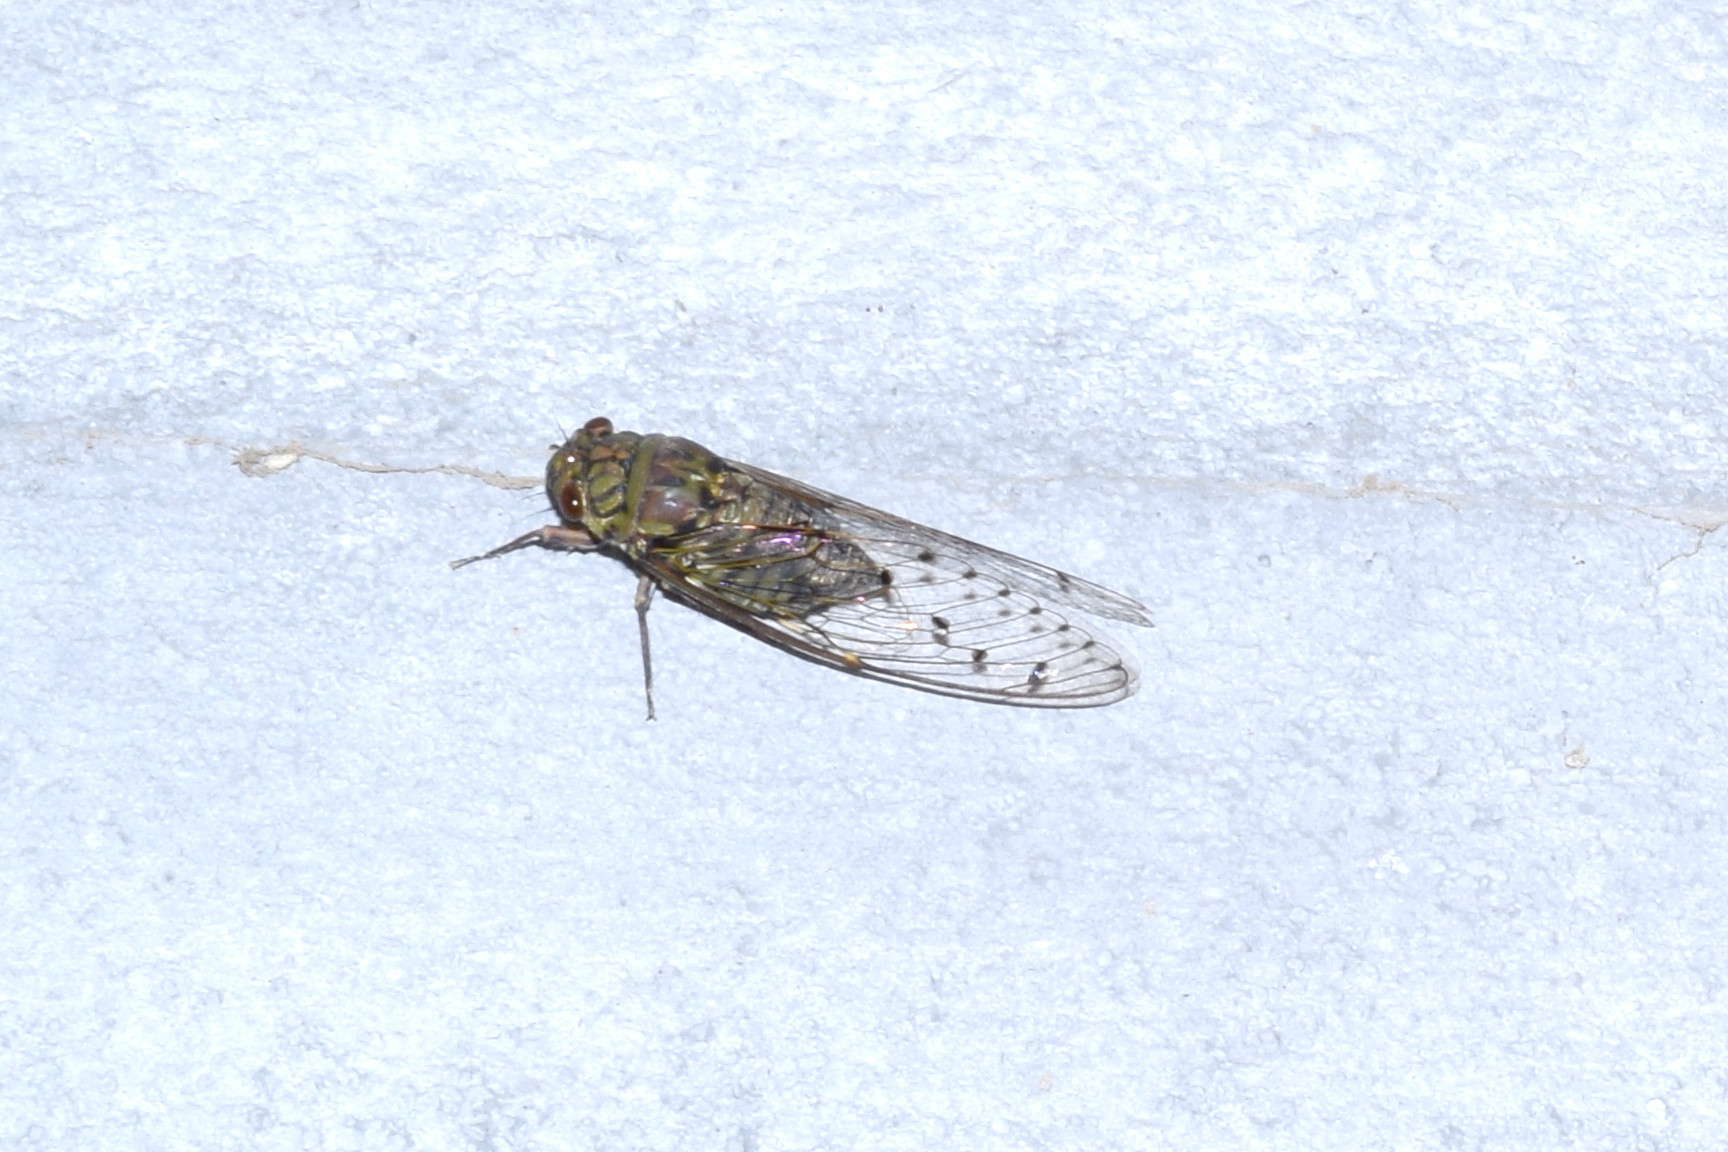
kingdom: Animalia
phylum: Arthropoda
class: Insecta
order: Hemiptera
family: Cicadidae
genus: Macrosemia
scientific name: Macrosemia umbrata
